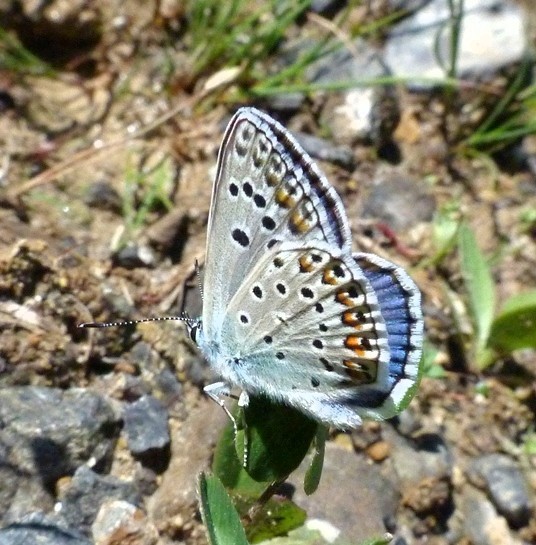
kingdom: Animalia
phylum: Arthropoda
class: Insecta
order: Lepidoptera
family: Lycaenidae
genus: Plebicula
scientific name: Plebicula escheri
